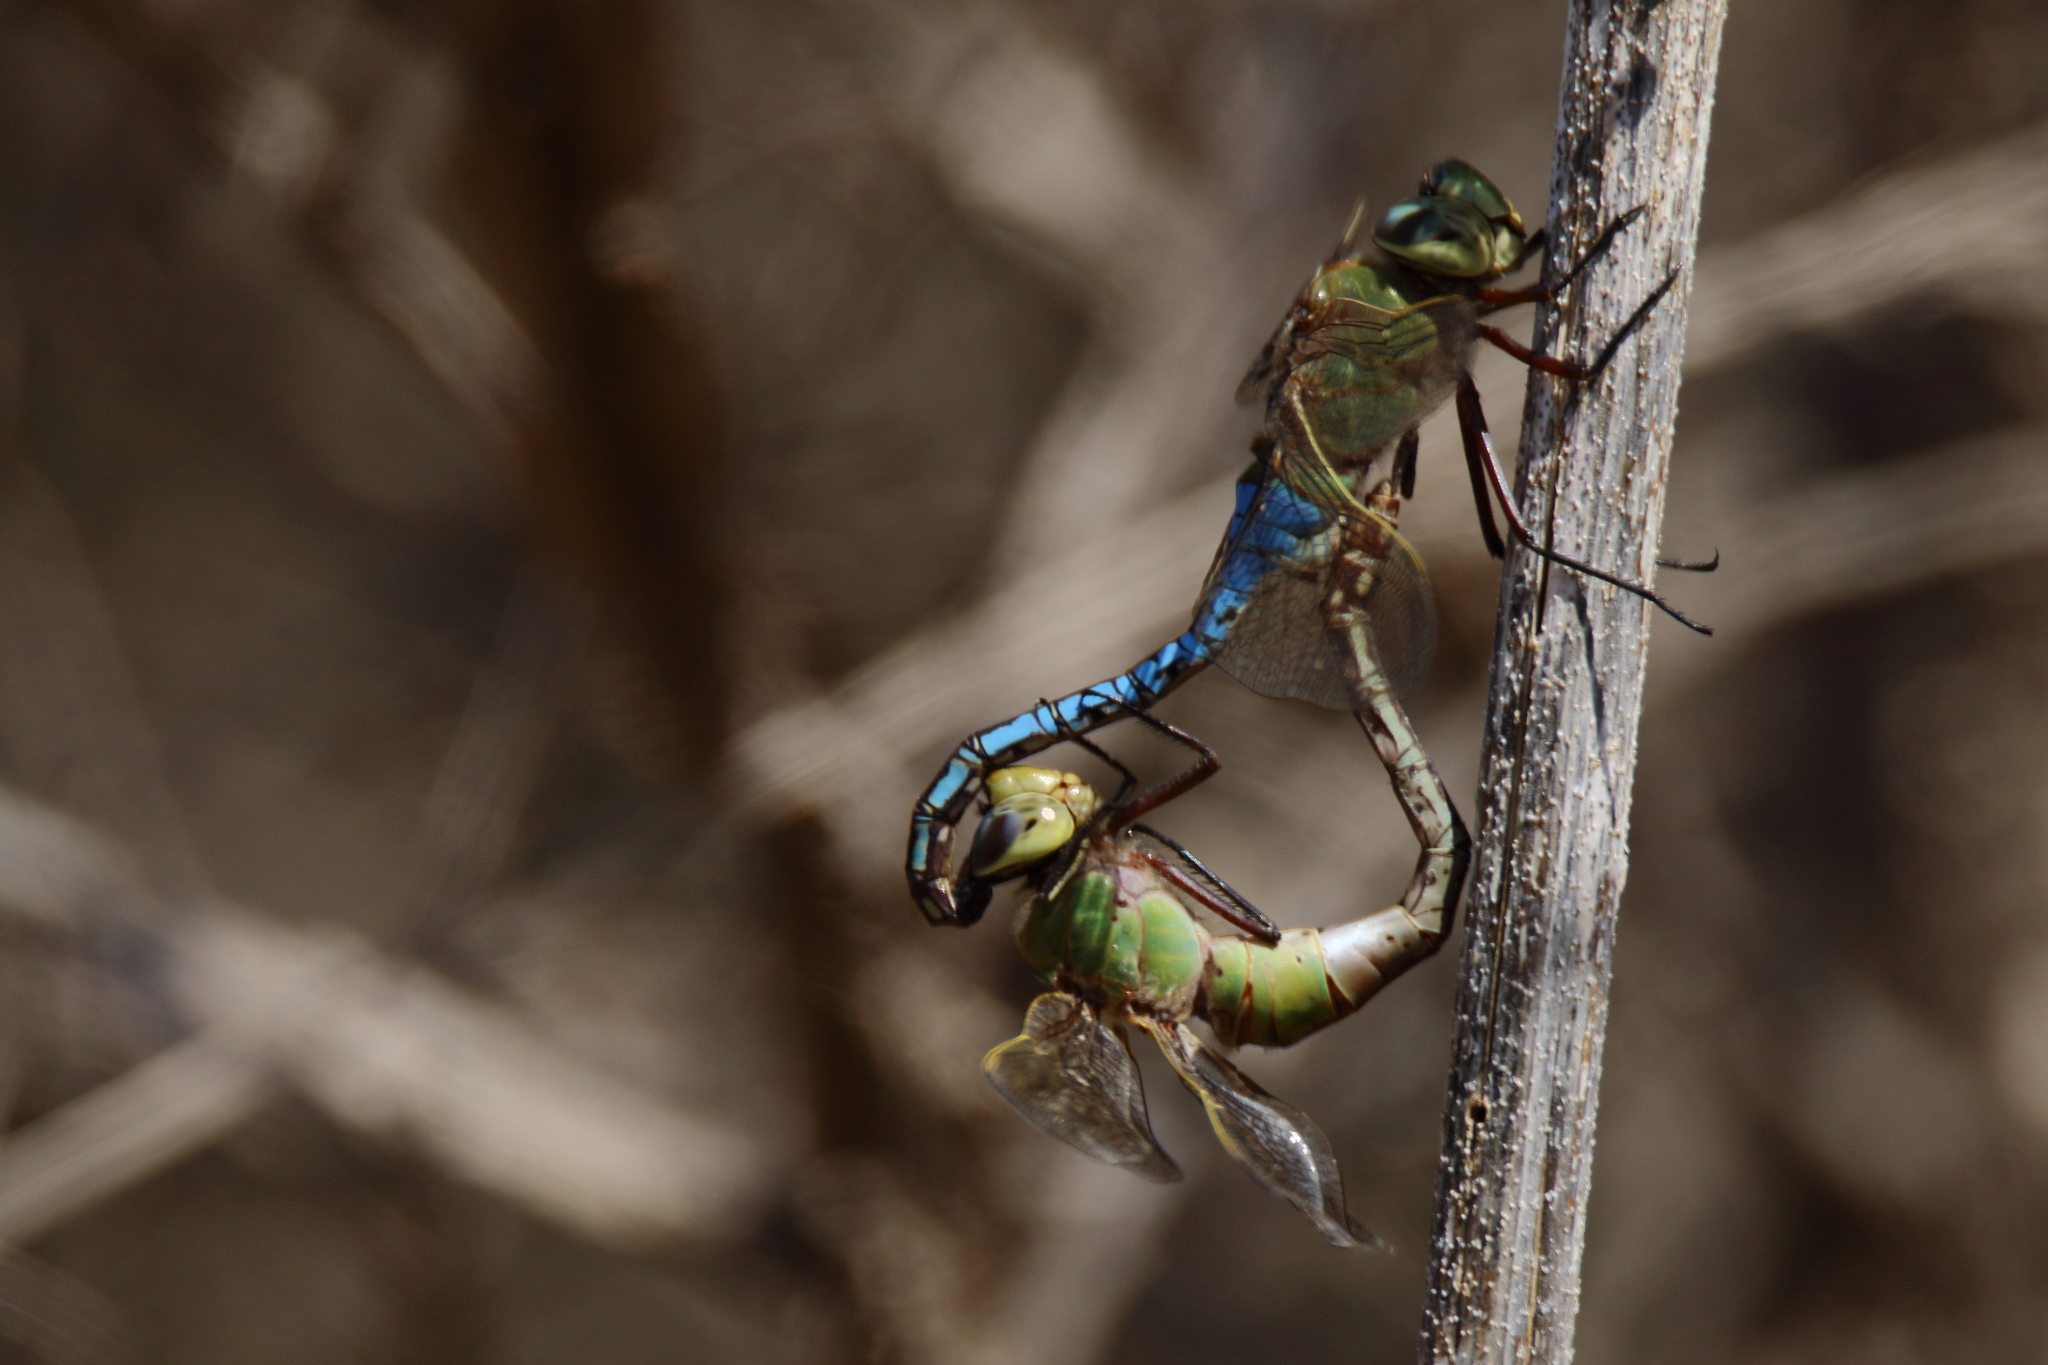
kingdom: Animalia
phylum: Arthropoda
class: Insecta
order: Odonata
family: Aeshnidae
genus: Anax
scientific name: Anax junius
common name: Common green darner
